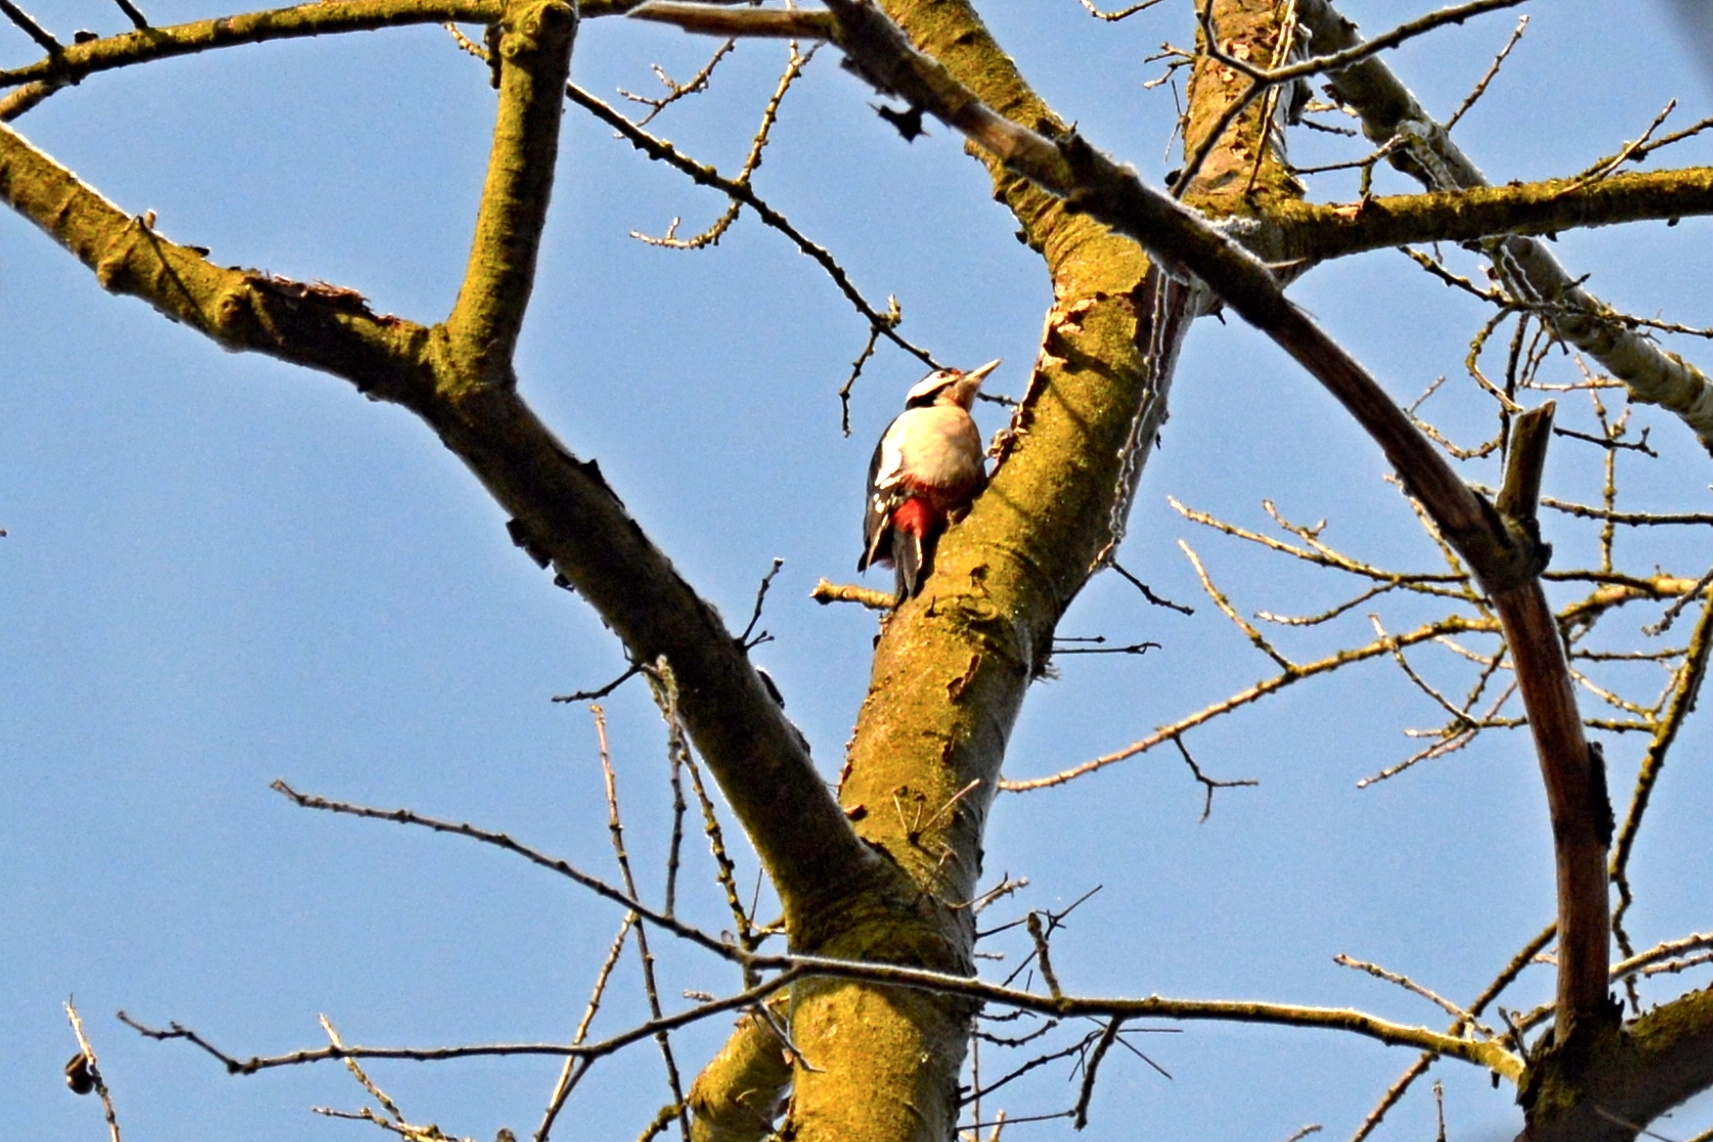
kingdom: Animalia
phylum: Chordata
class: Aves
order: Piciformes
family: Picidae
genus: Dendrocopos
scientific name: Dendrocopos major
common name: Great spotted woodpecker
